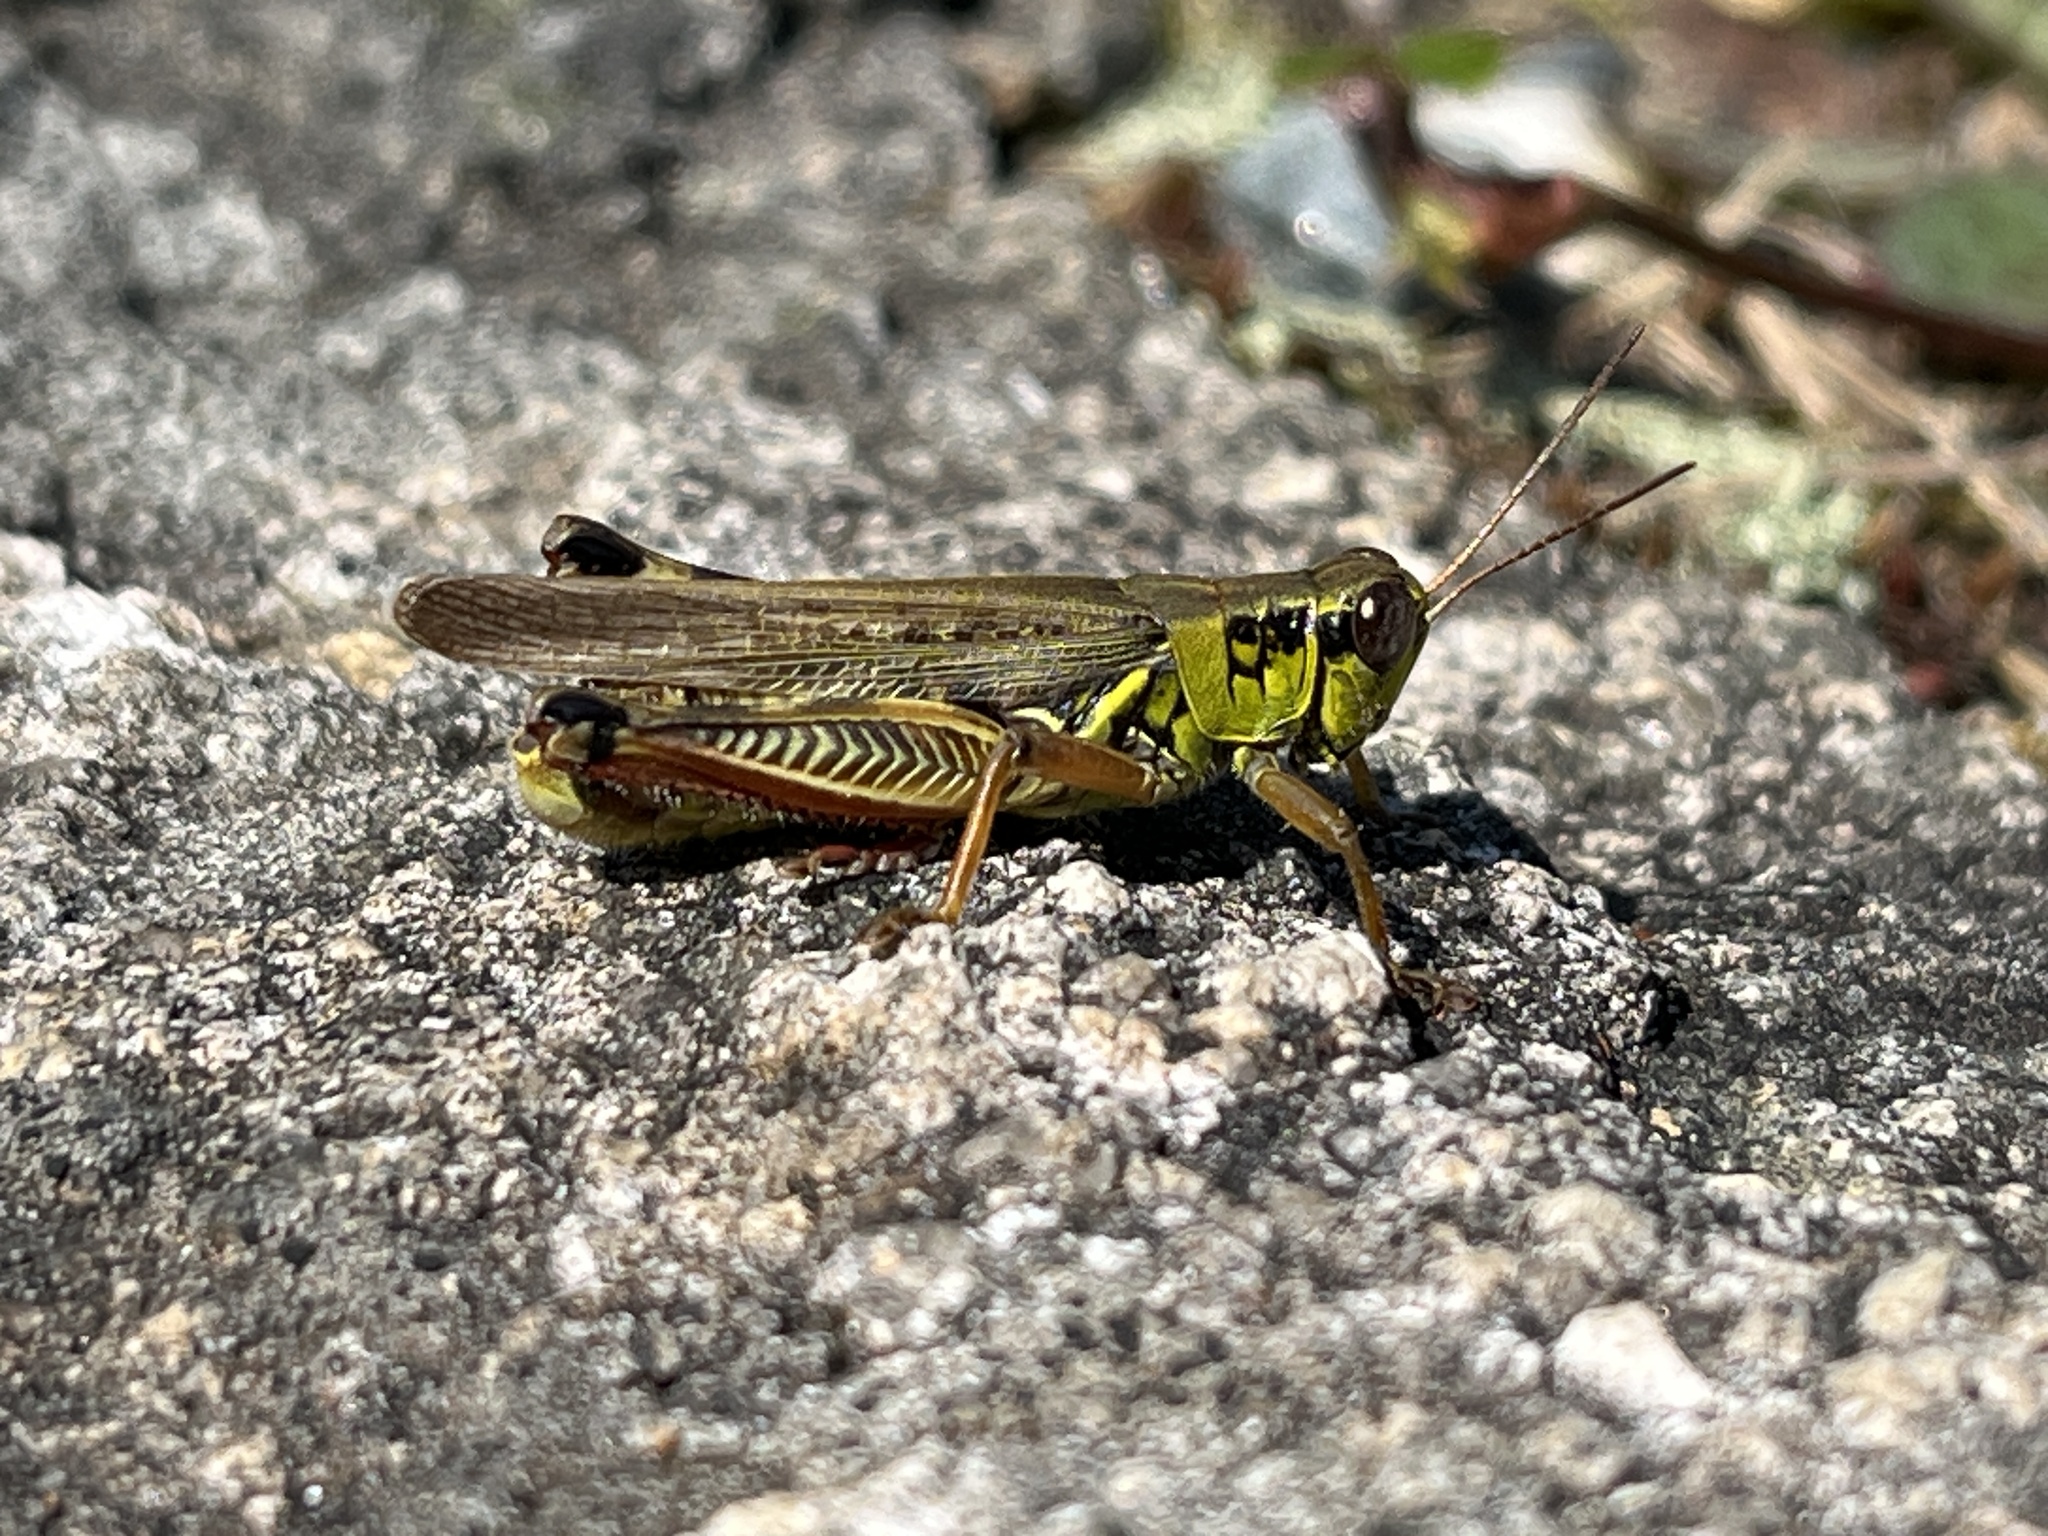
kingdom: Animalia
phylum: Arthropoda
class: Insecta
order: Orthoptera
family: Acrididae
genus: Melanoplus
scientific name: Melanoplus femurrubrum
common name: Red-legged grasshopper
